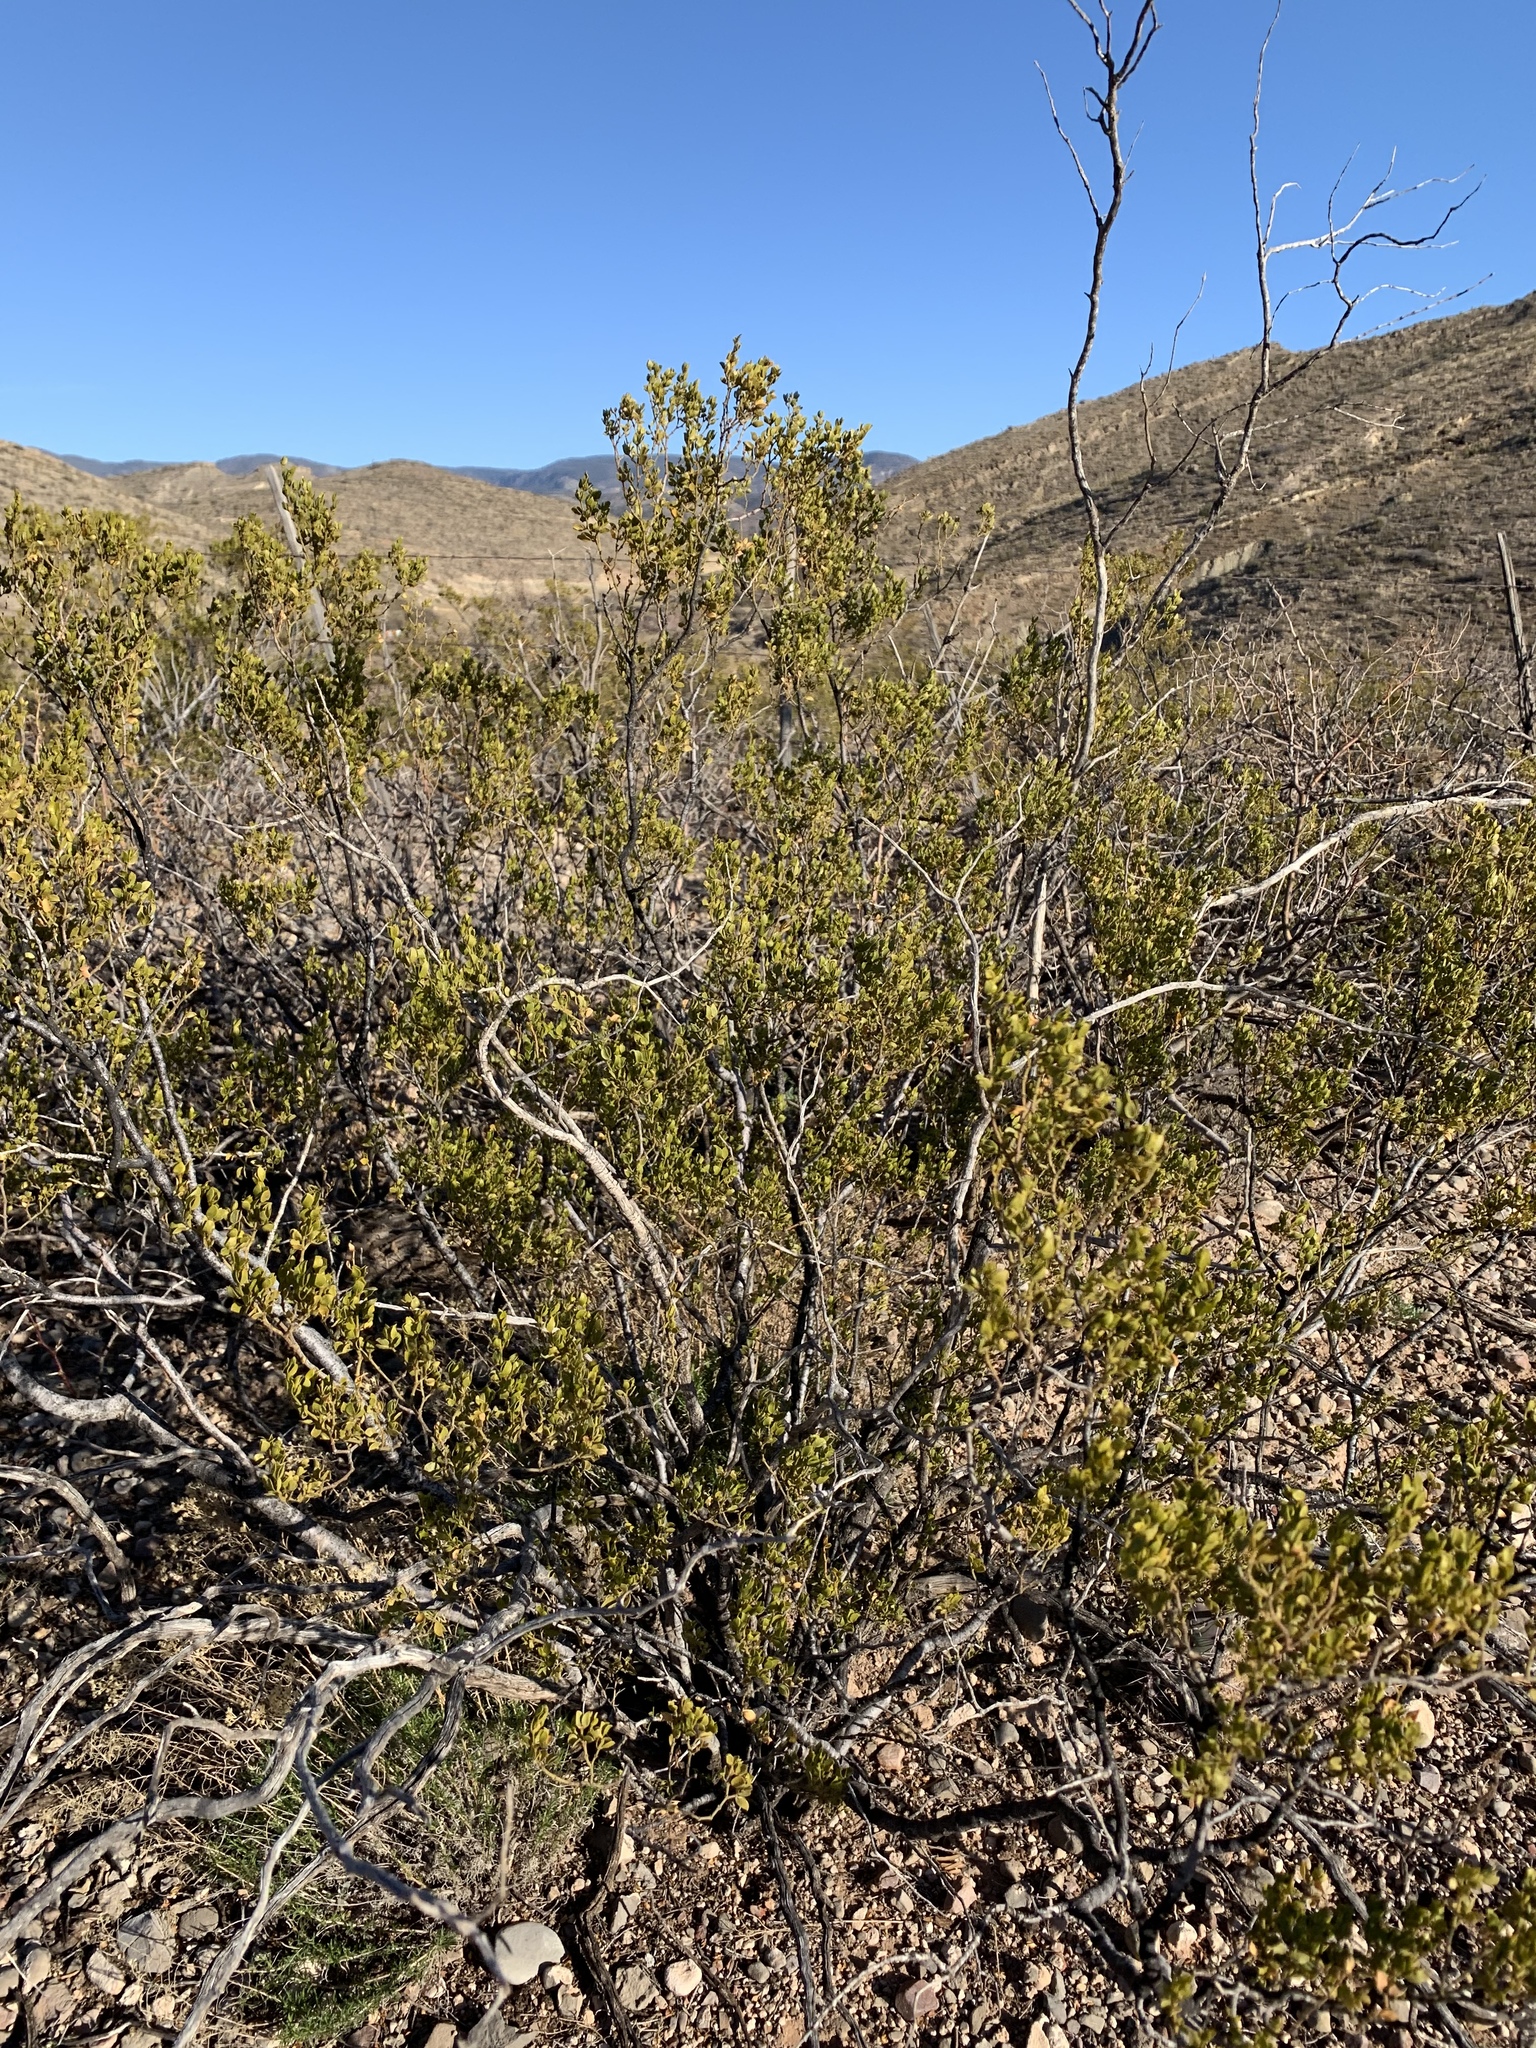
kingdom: Plantae
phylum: Tracheophyta
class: Magnoliopsida
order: Zygophyllales
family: Zygophyllaceae
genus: Larrea
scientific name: Larrea tridentata
